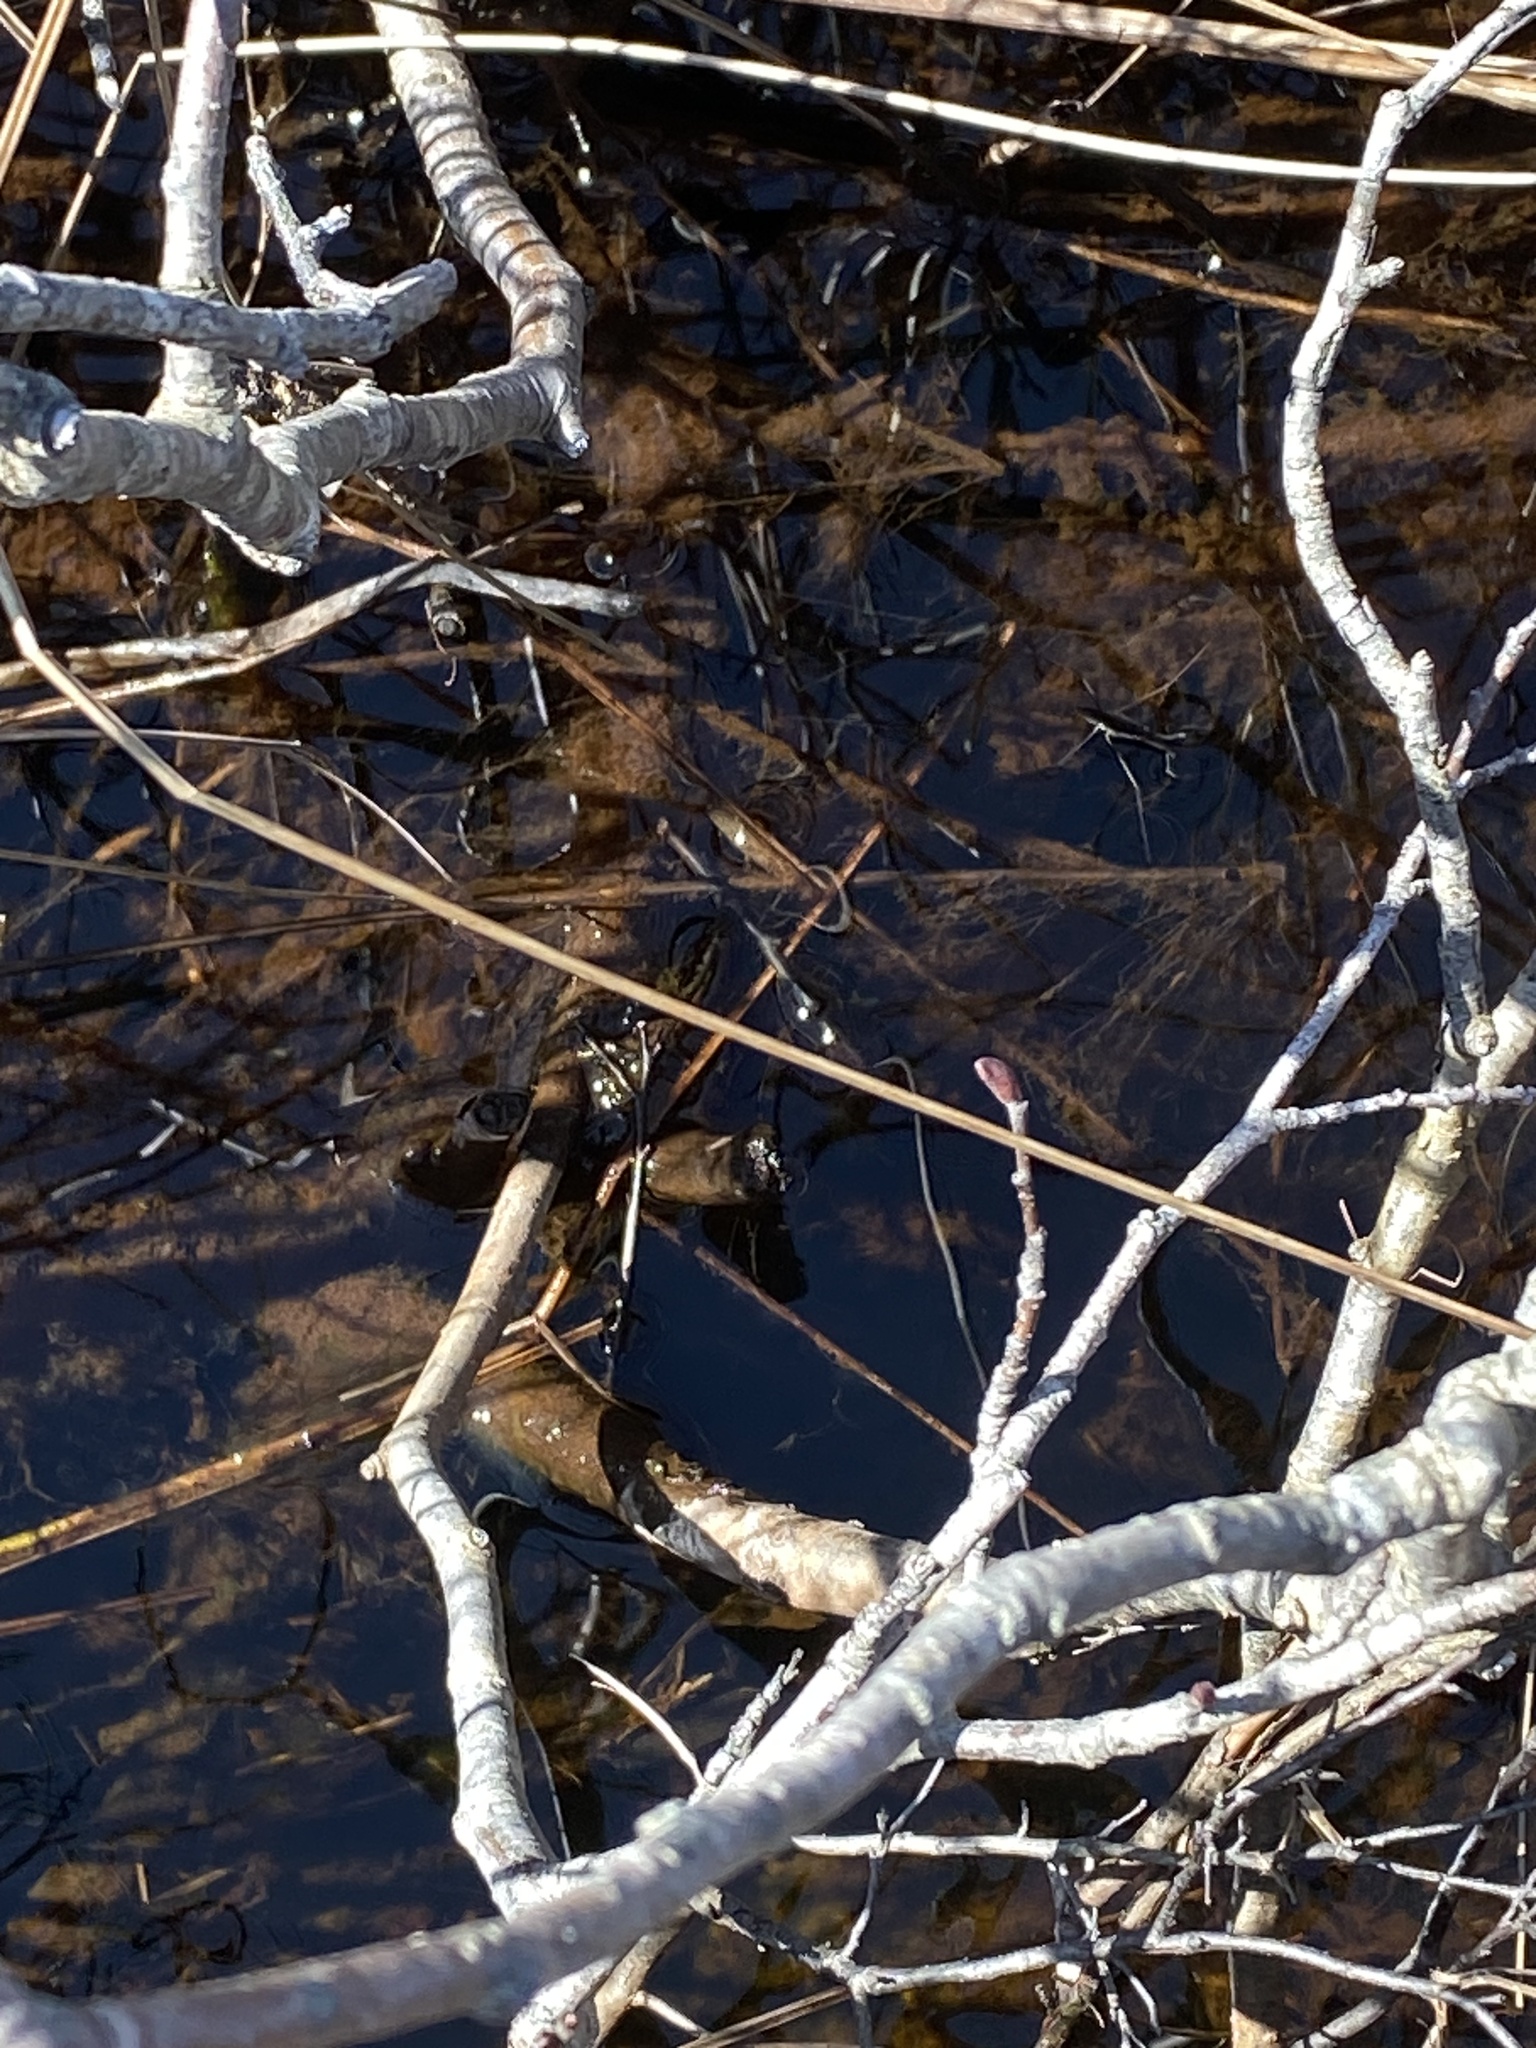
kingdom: Animalia
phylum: Arthropoda
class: Insecta
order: Hemiptera
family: Gerridae
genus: Aquarius
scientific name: Aquarius remigis
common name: Common water strider
